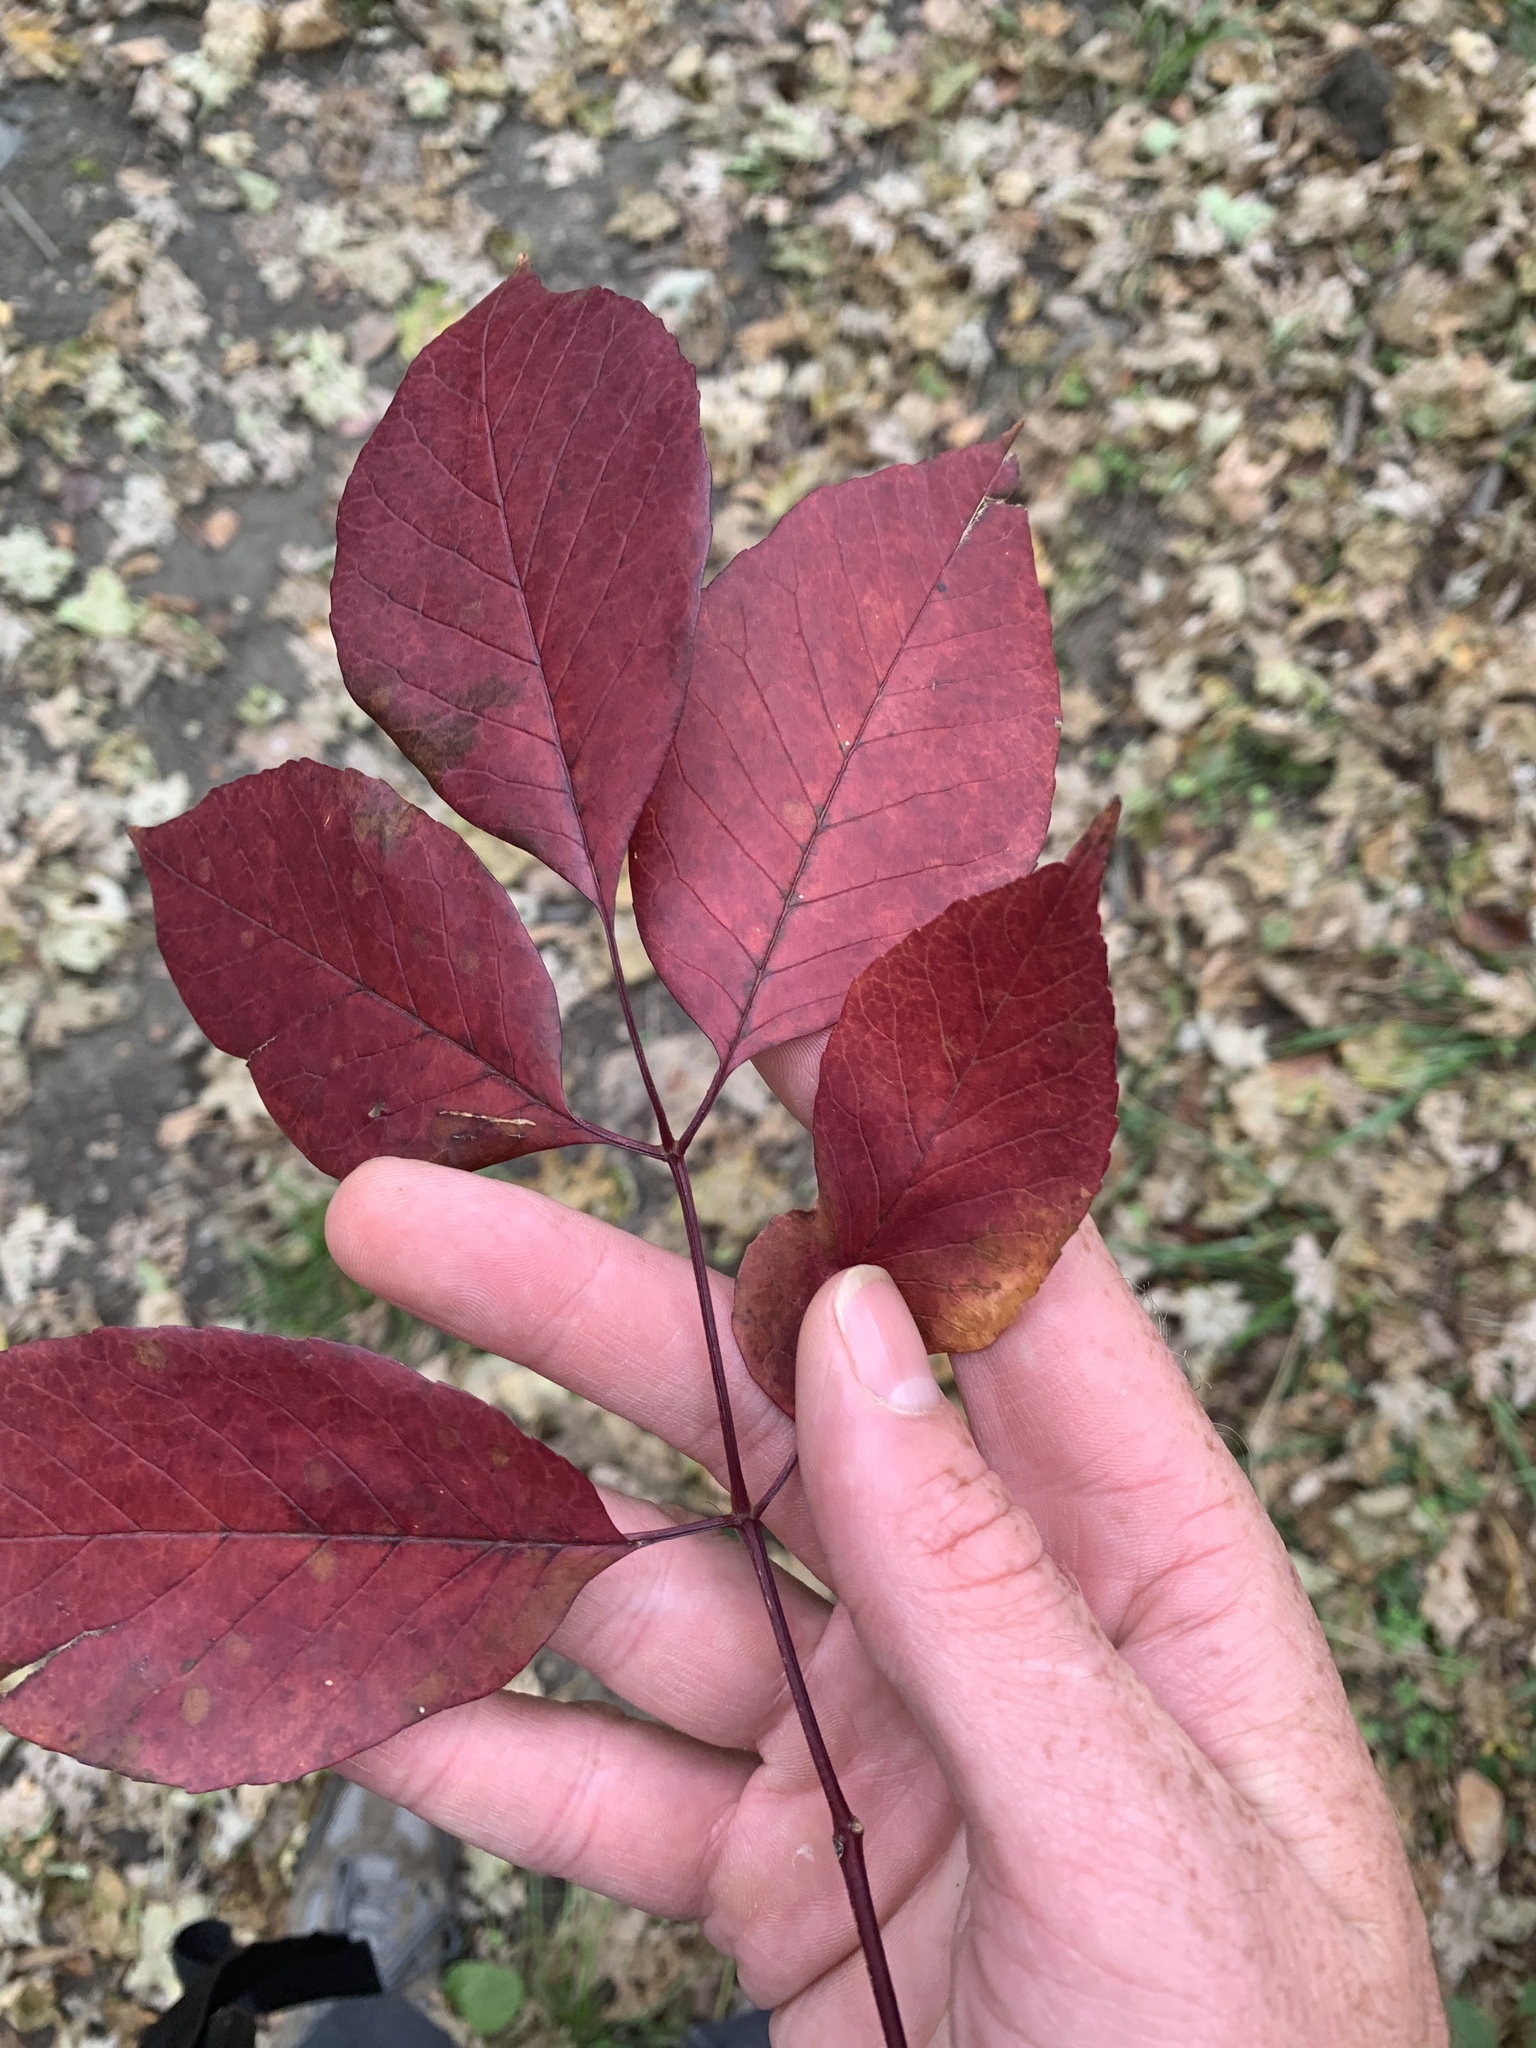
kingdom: Plantae
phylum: Tracheophyta
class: Magnoliopsida
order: Lamiales
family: Oleaceae
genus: Fraxinus
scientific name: Fraxinus americana
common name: White ash
